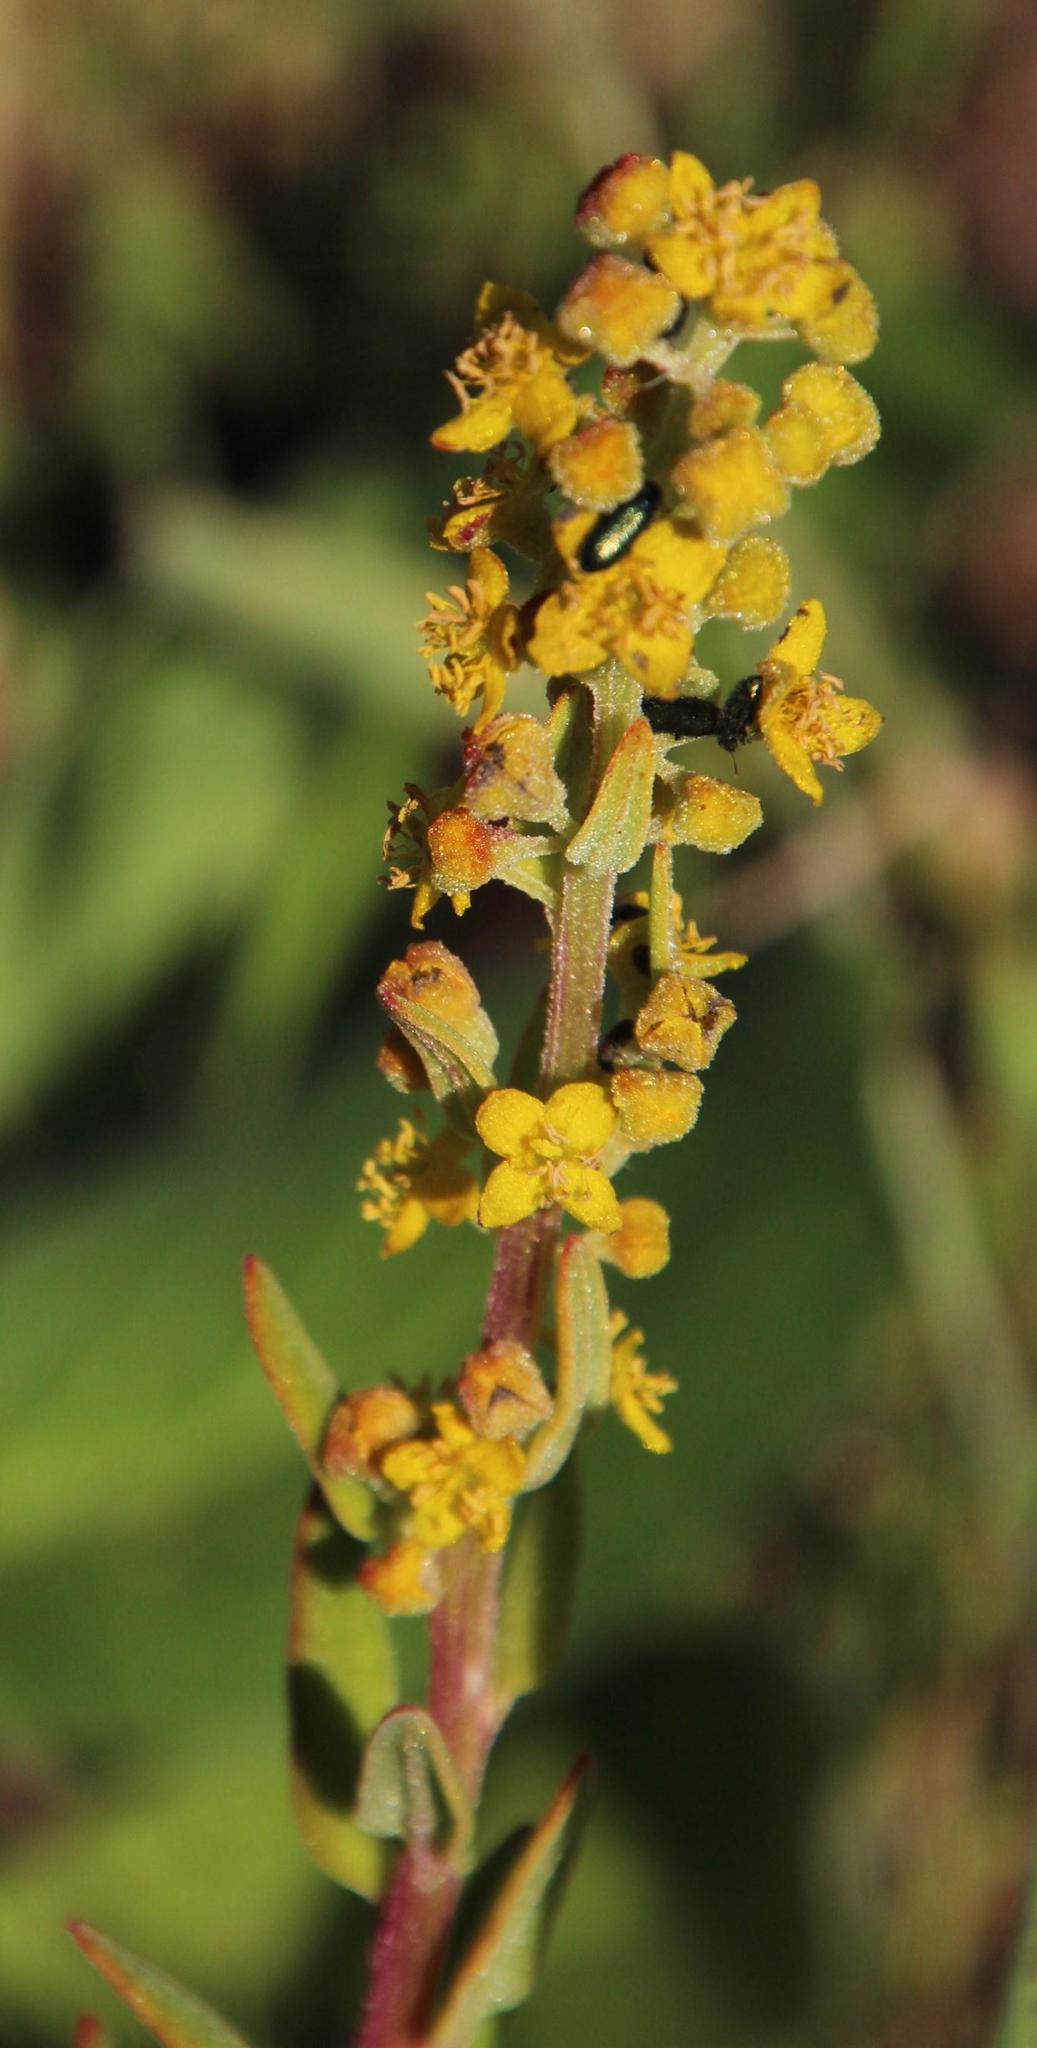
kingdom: Plantae
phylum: Tracheophyta
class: Magnoliopsida
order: Caryophyllales
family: Aizoaceae
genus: Tetragonia
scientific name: Tetragonia fruticosa
